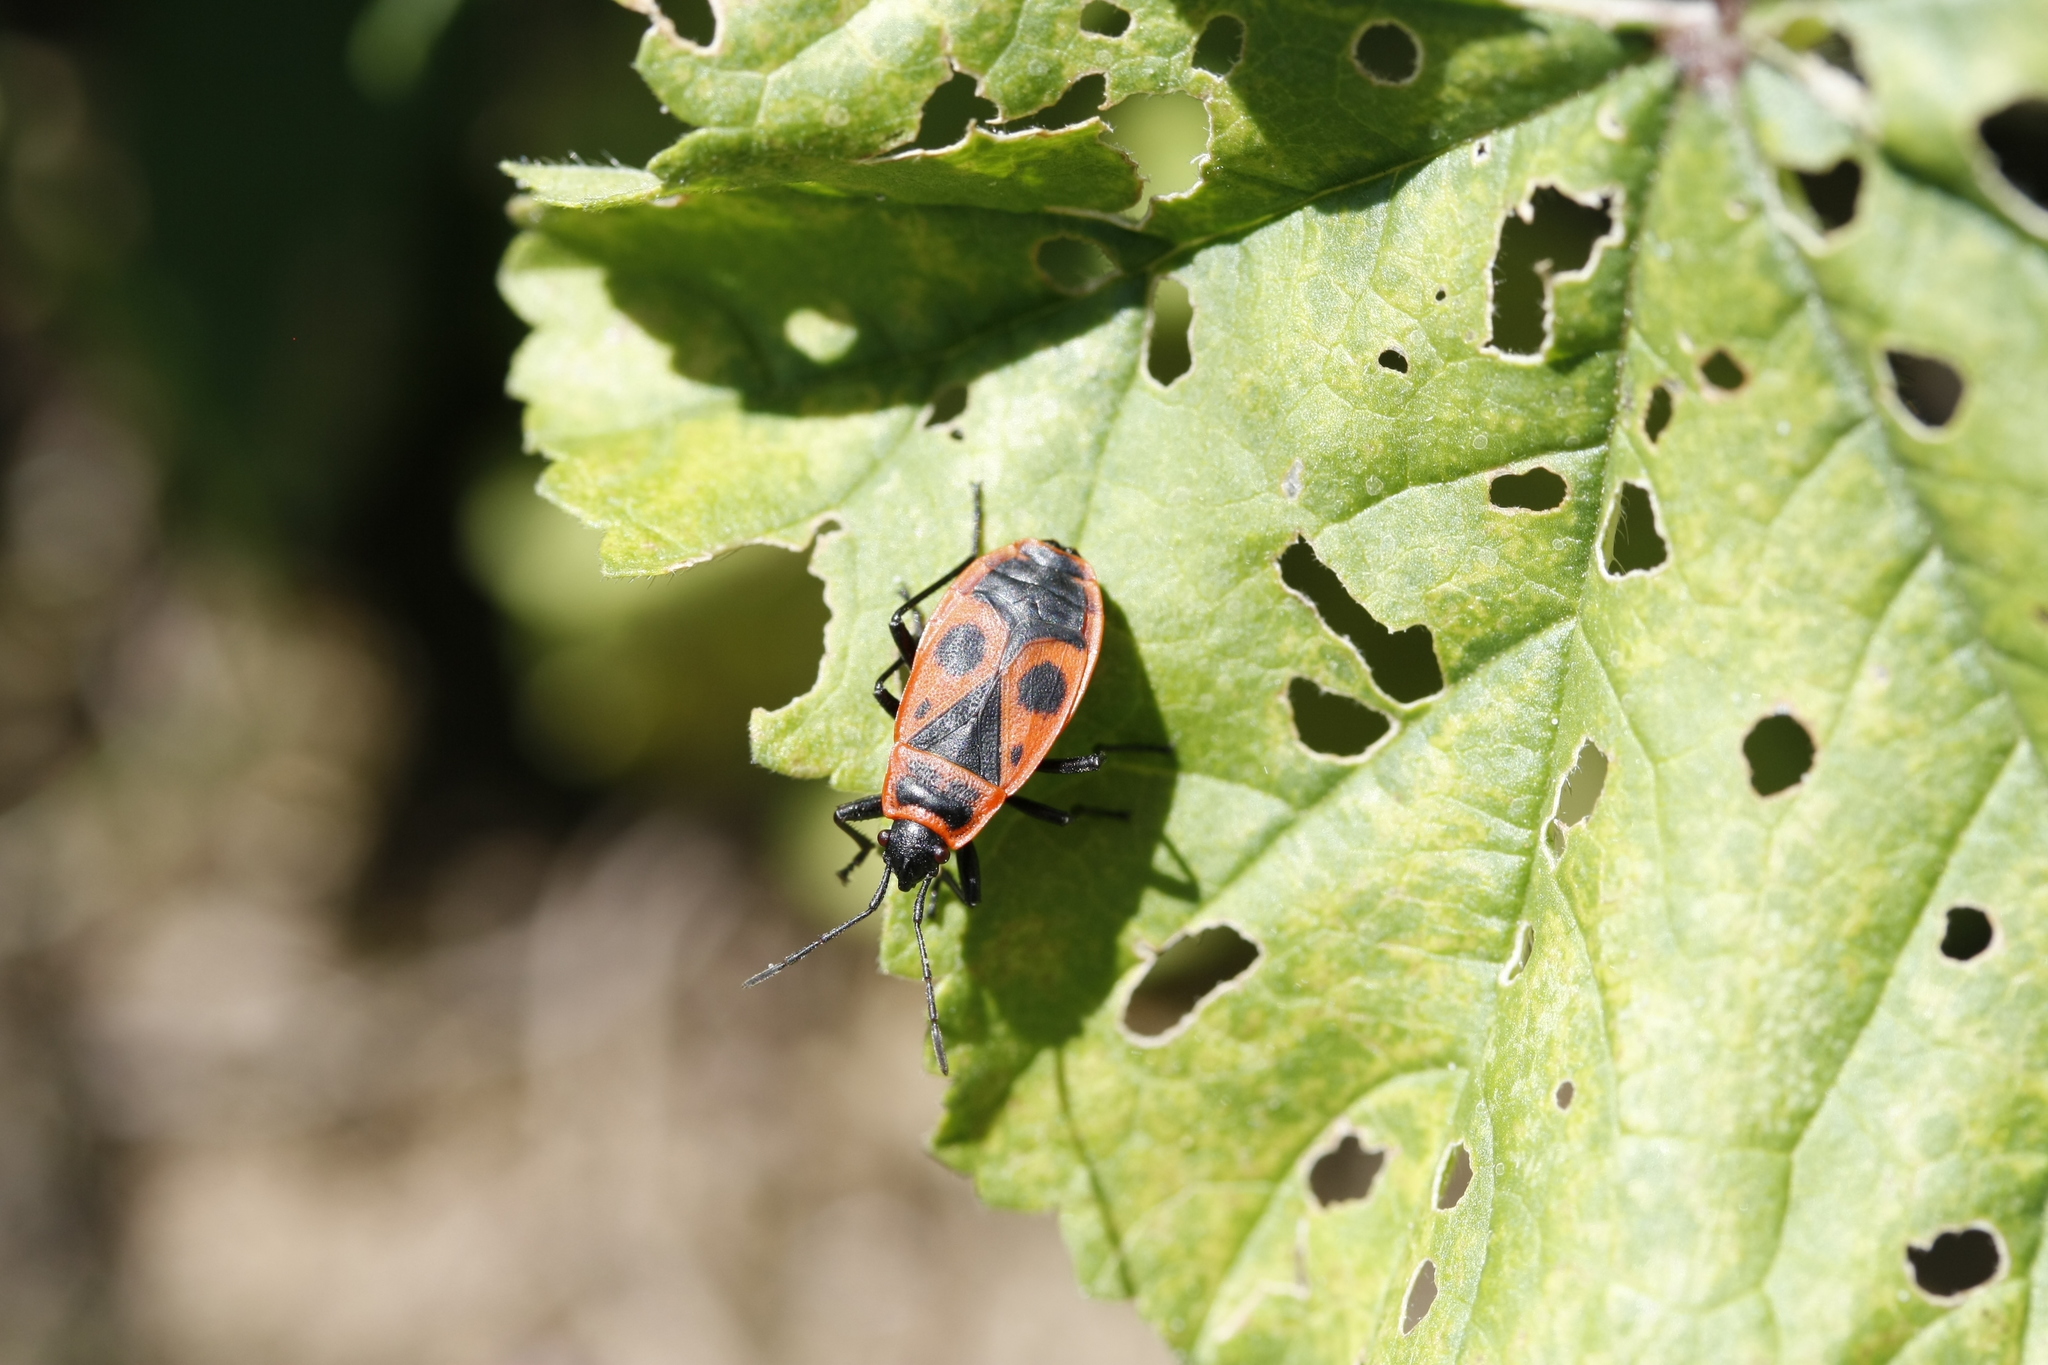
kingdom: Animalia
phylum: Arthropoda
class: Insecta
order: Hemiptera
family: Pyrrhocoridae
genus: Pyrrhocoris
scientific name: Pyrrhocoris apterus
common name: Firebug
